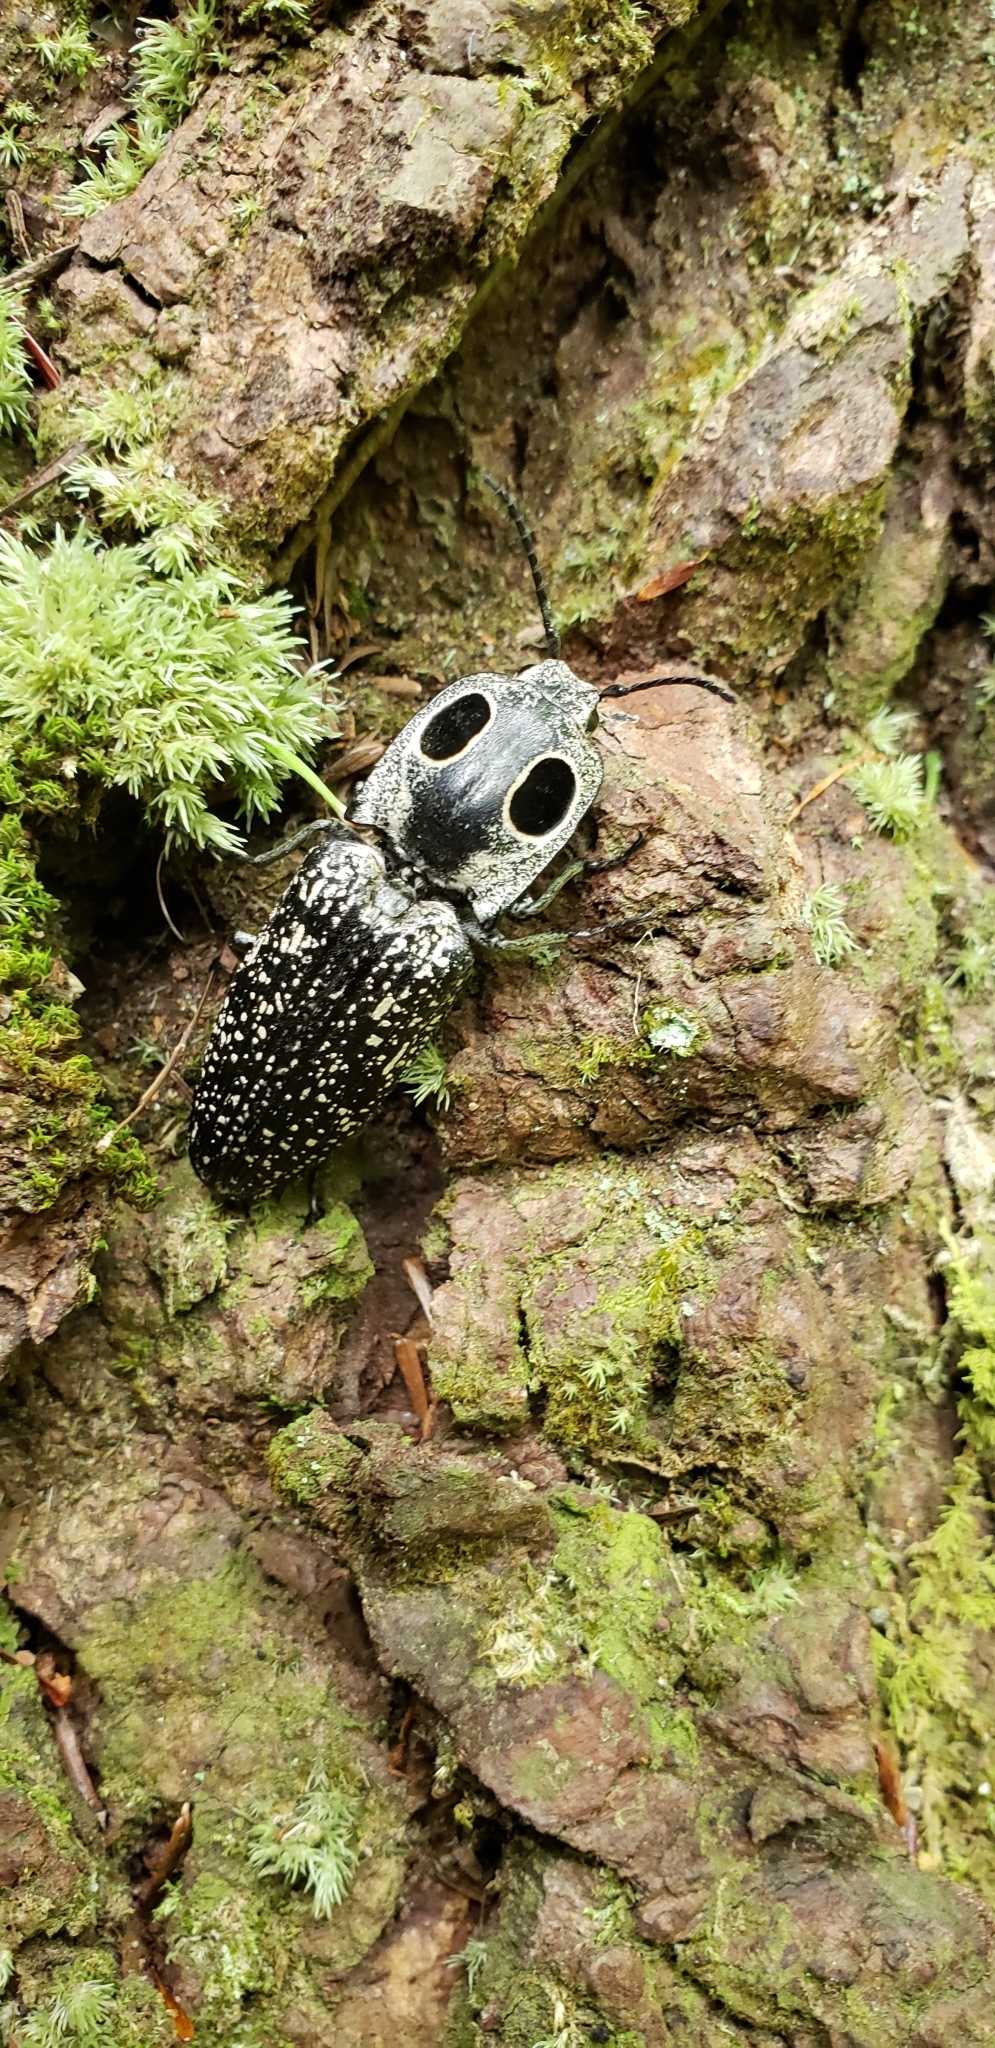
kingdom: Animalia
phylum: Arthropoda
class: Insecta
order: Coleoptera
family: Elateridae
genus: Alaus
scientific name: Alaus oculatus
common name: Eastern eyed click beetle
